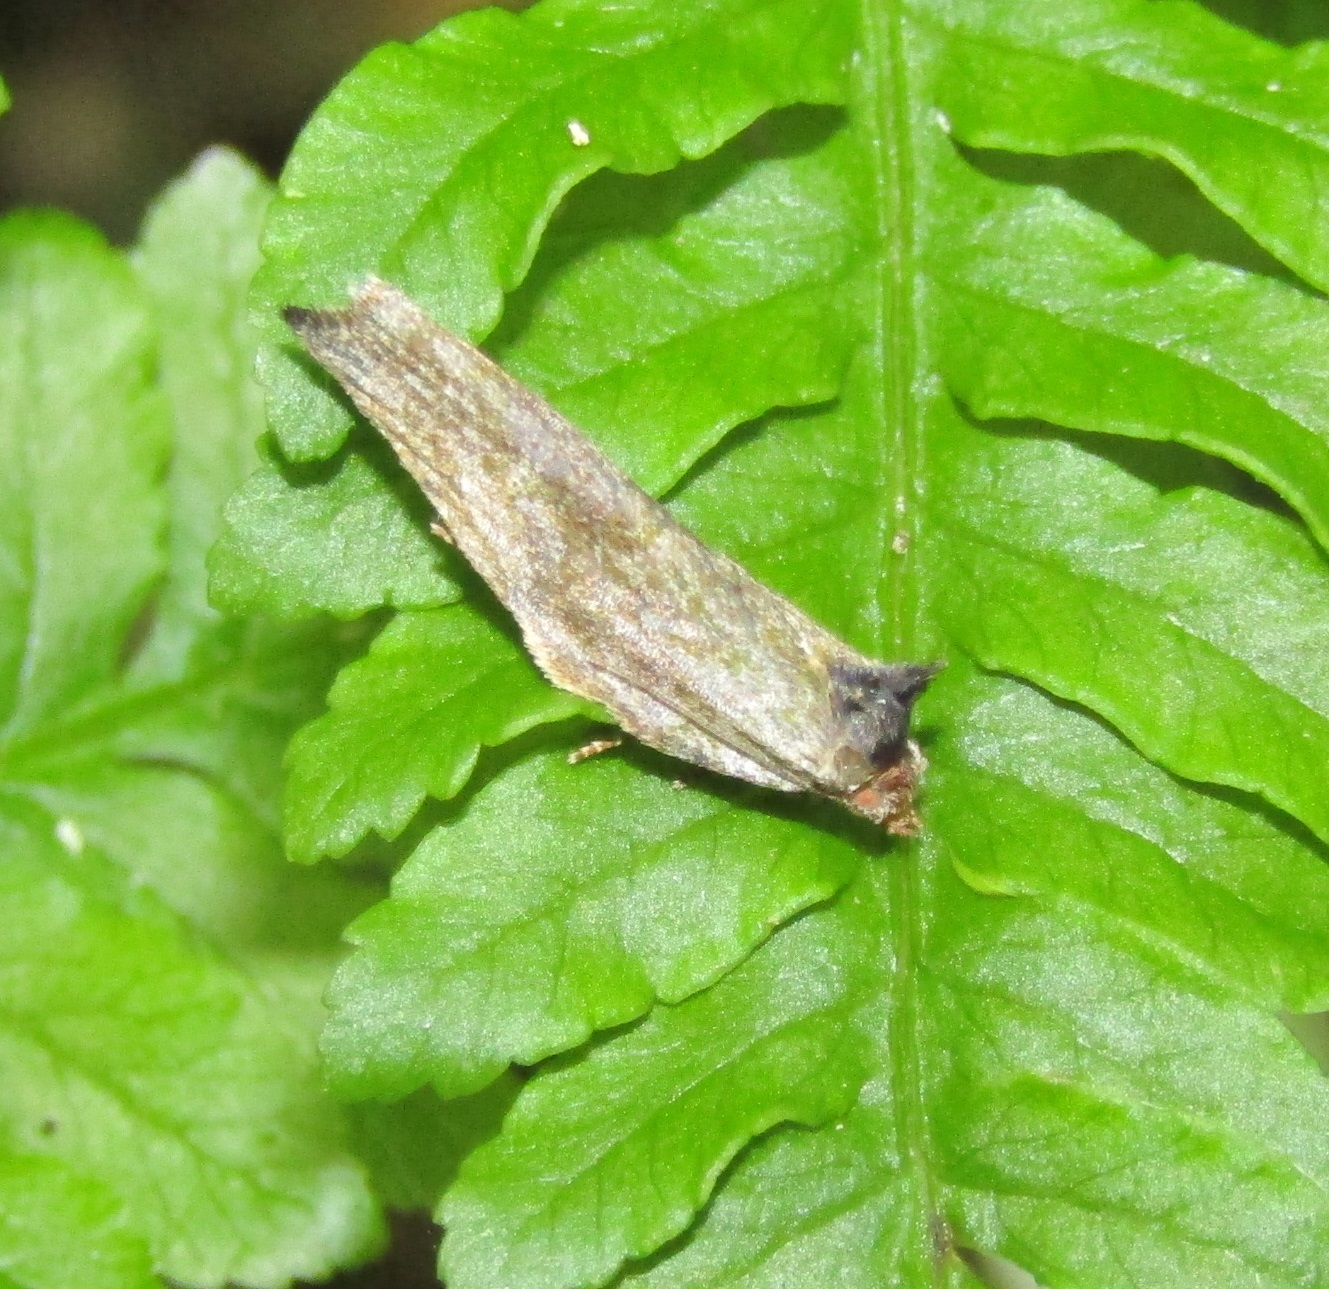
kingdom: Animalia
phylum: Arthropoda
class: Insecta
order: Lepidoptera
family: Tortricidae
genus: Epalxiphora
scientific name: Epalxiphora axenana
